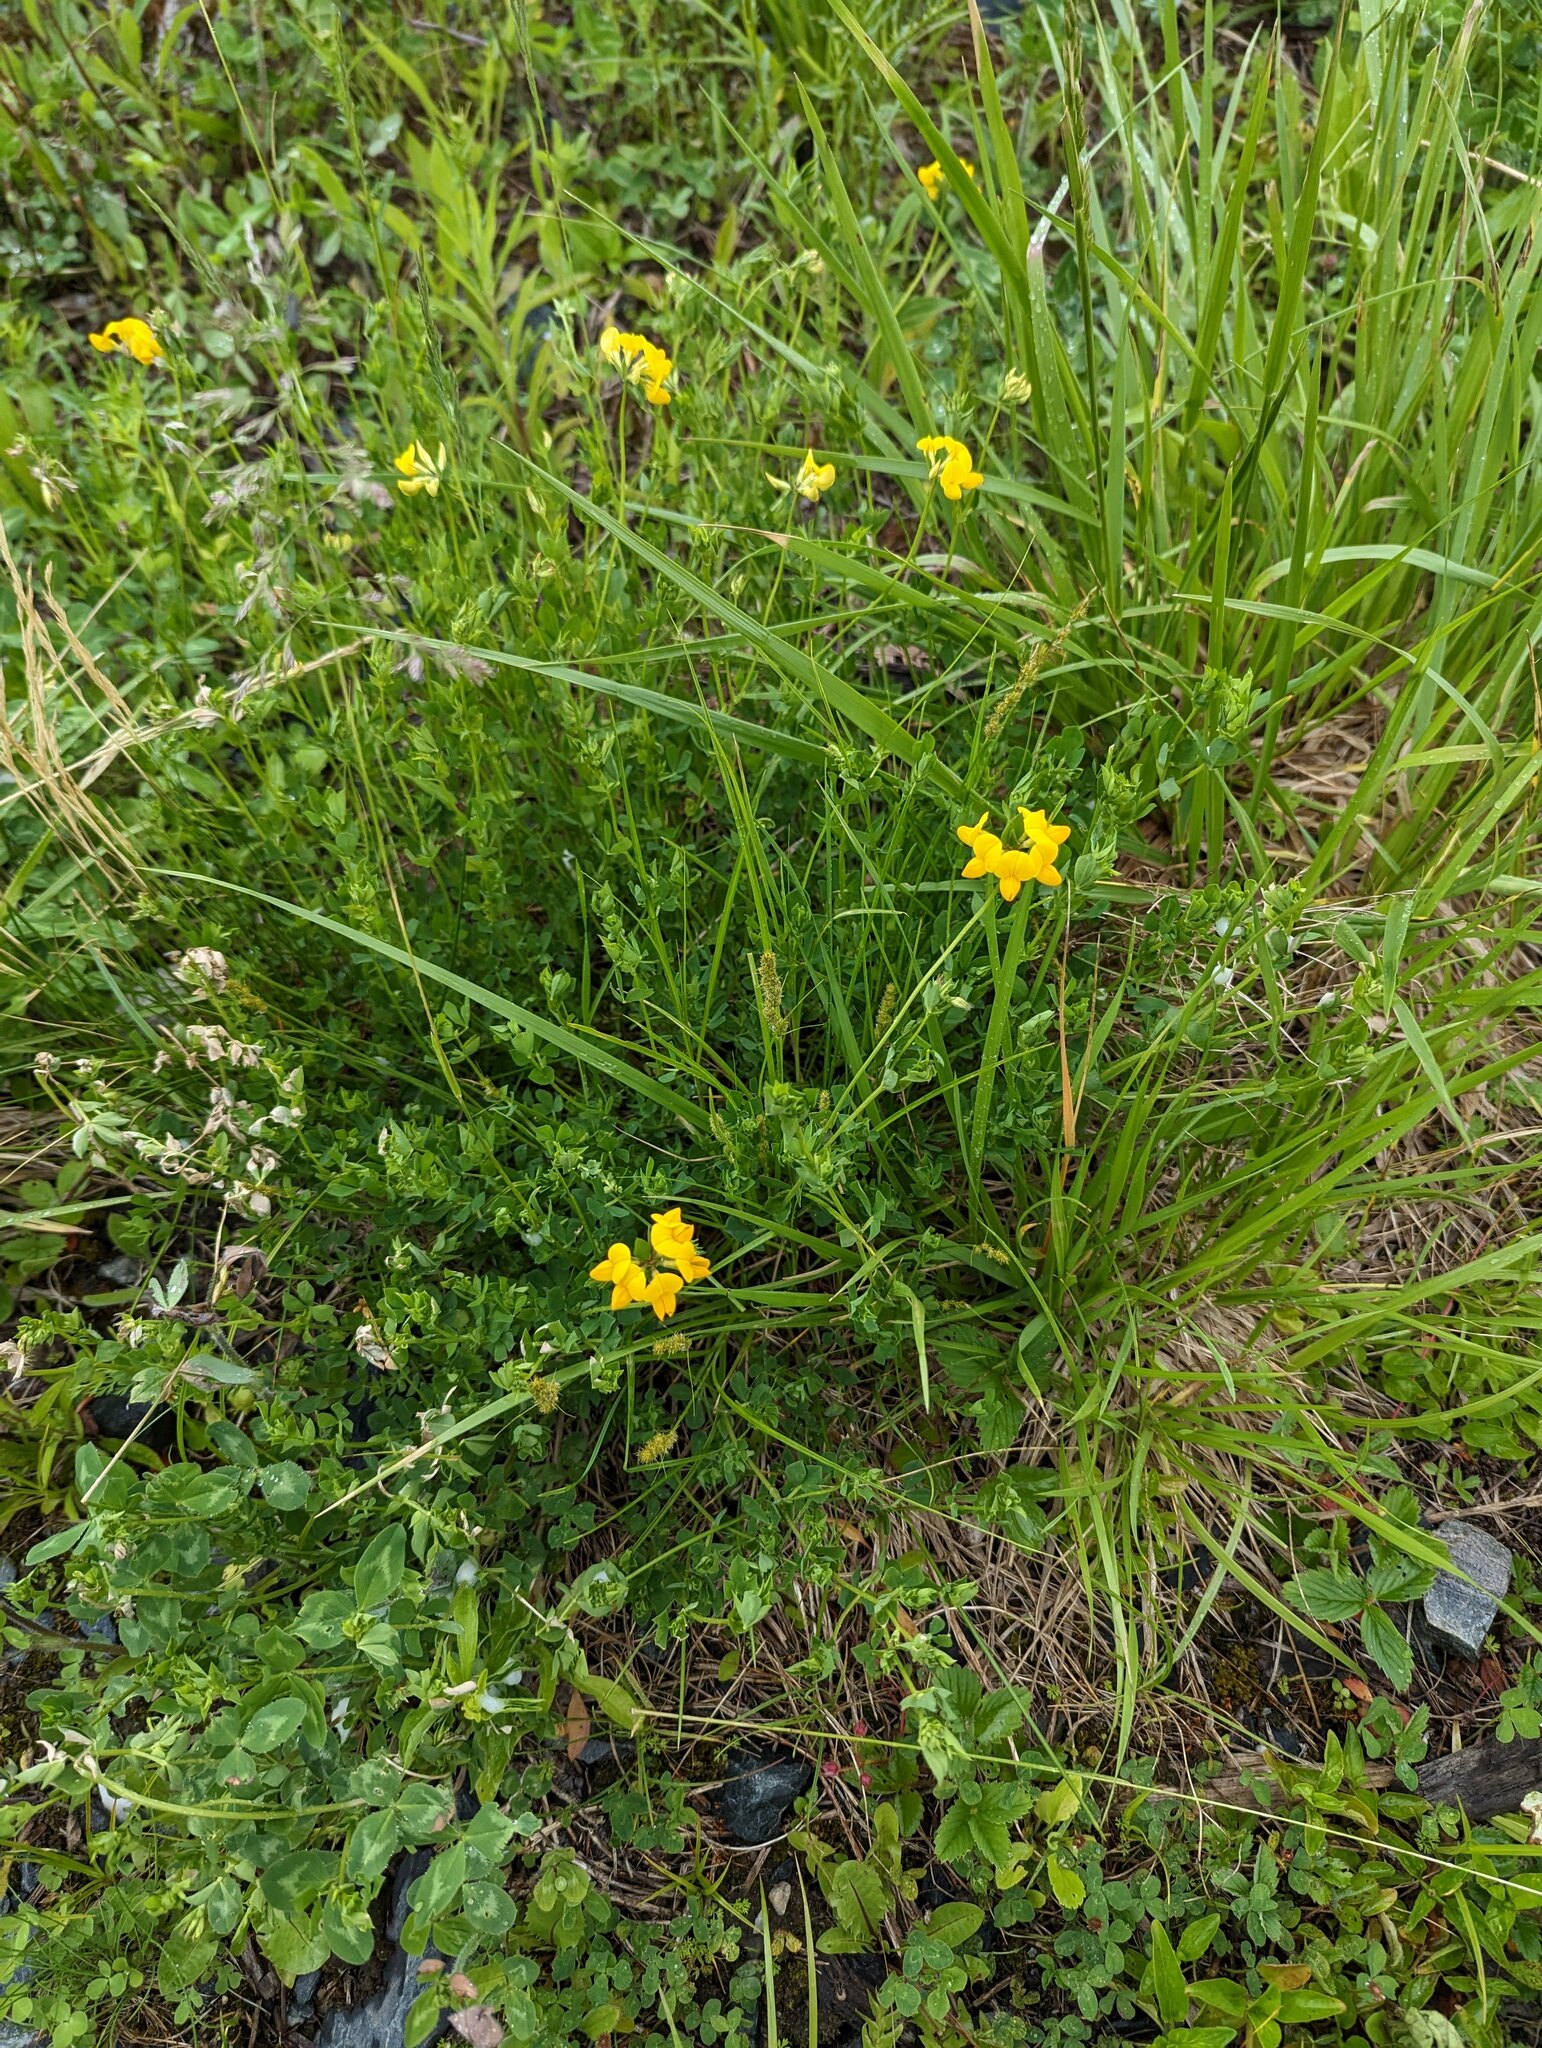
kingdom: Plantae
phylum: Tracheophyta
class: Magnoliopsida
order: Fabales
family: Fabaceae
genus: Lotus
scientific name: Lotus corniculatus
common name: Common bird's-foot-trefoil
